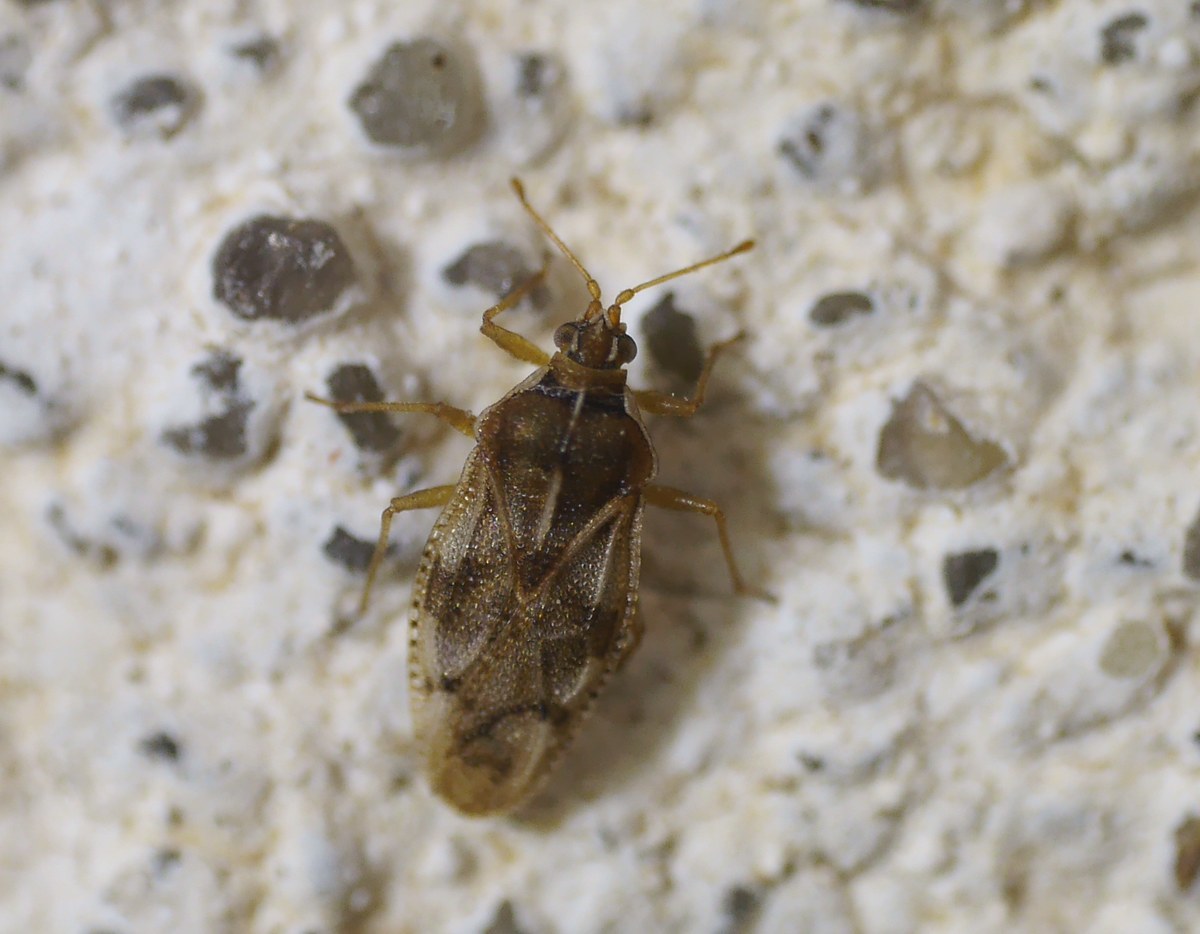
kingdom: Animalia
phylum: Arthropoda
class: Insecta
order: Hemiptera
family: Tingidae
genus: Monosteira
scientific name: Monosteira unicostata
